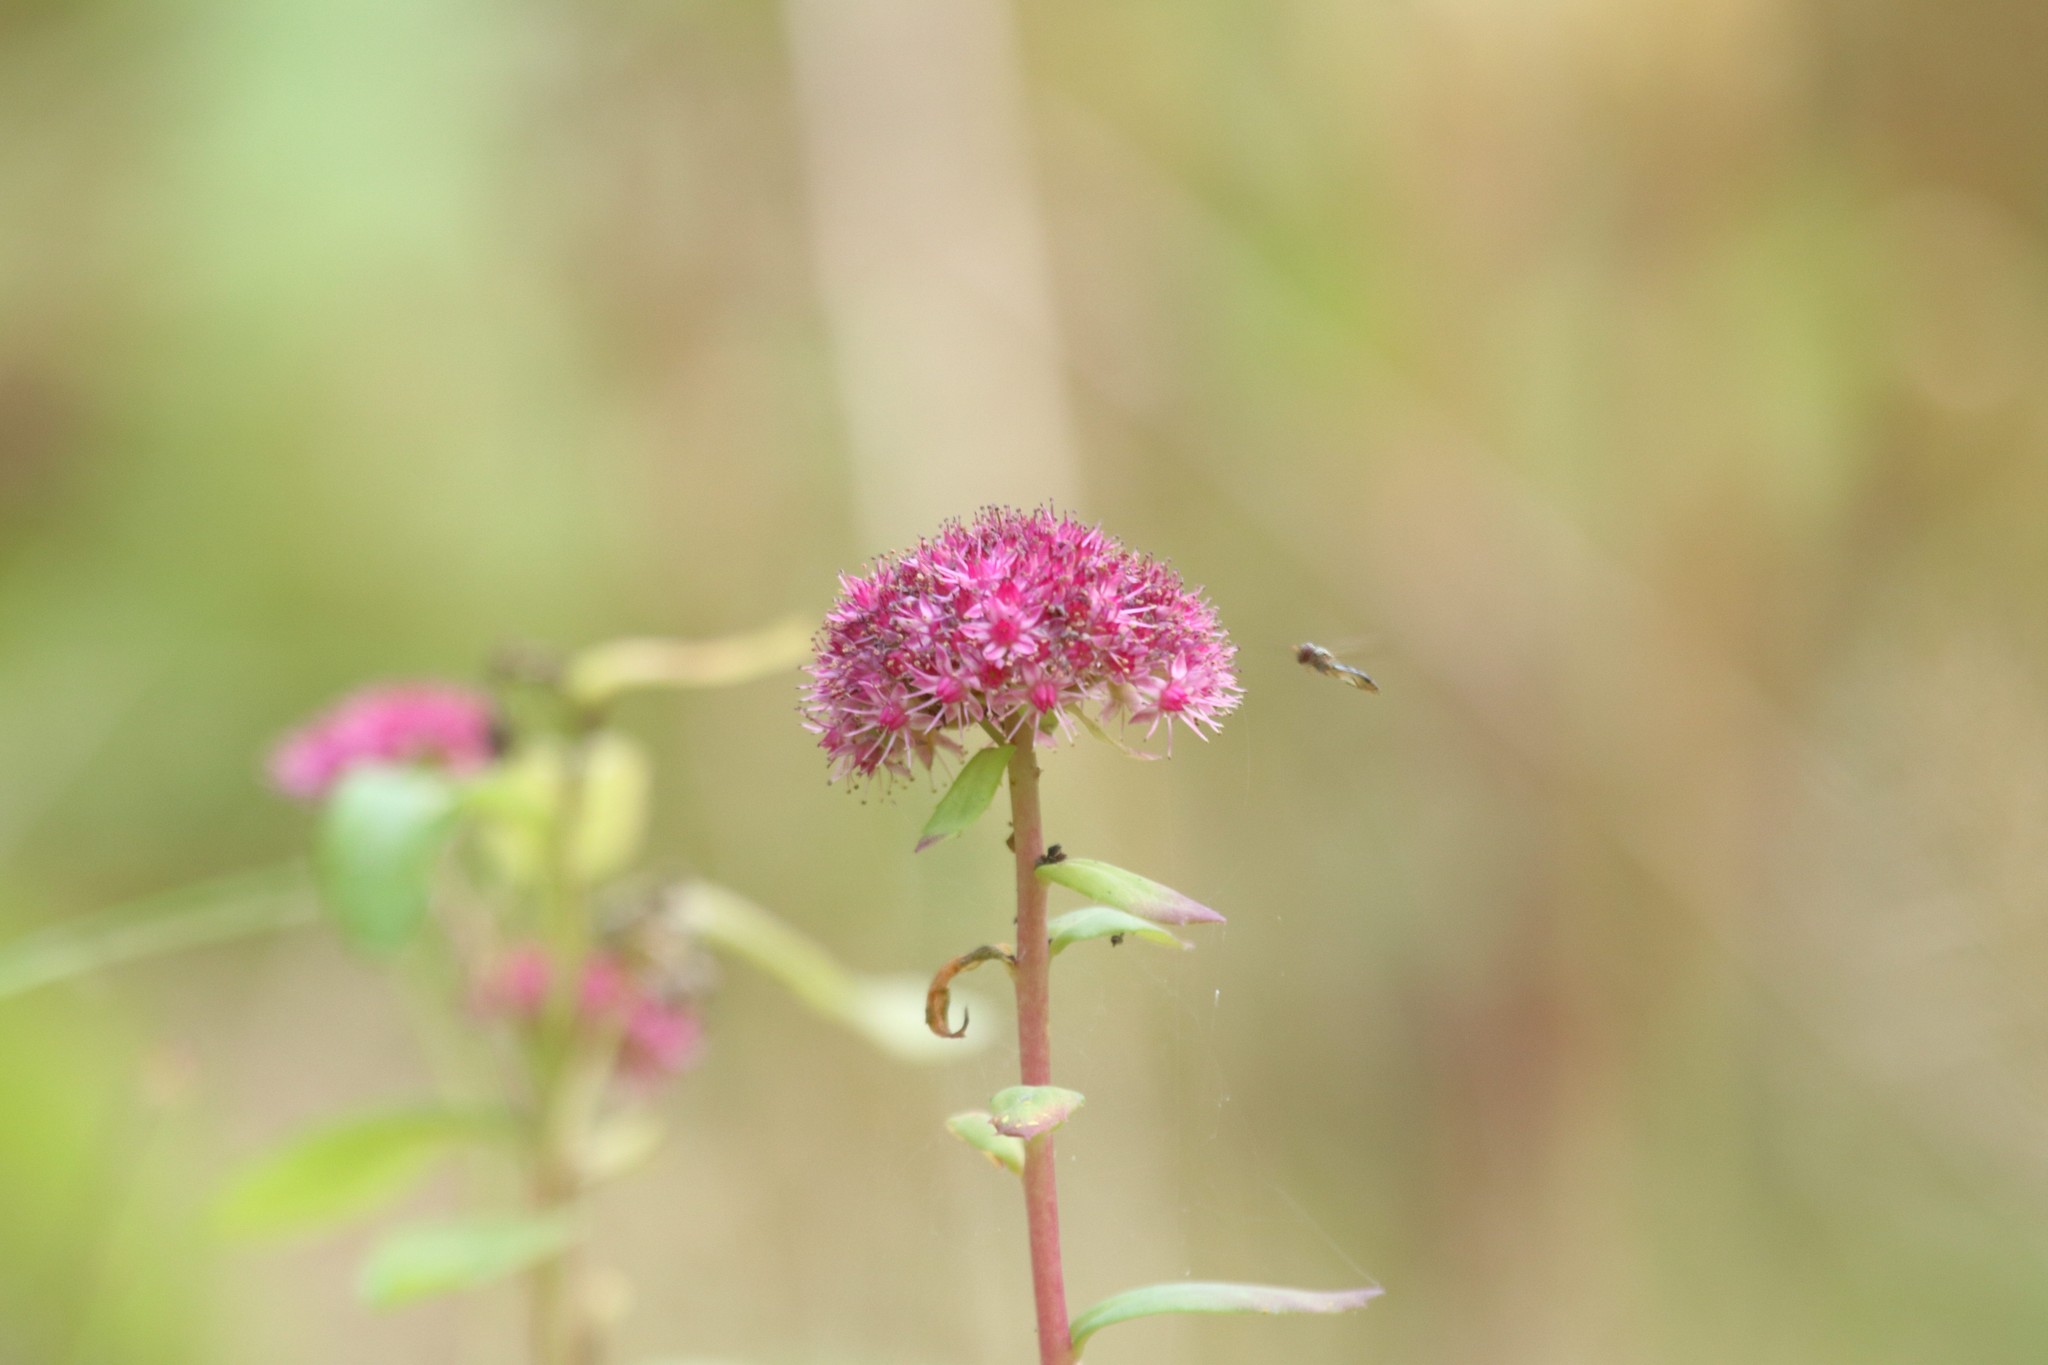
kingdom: Plantae
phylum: Tracheophyta
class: Magnoliopsida
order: Saxifragales
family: Crassulaceae
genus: Hylotelephium
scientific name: Hylotelephium telephium
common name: Live-forever
